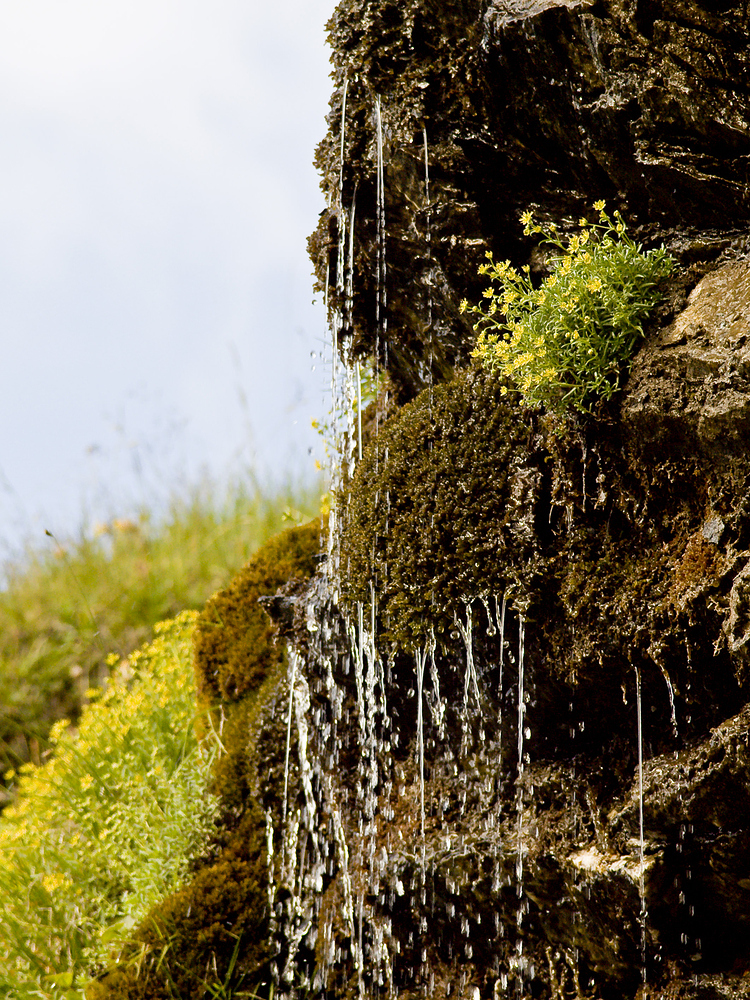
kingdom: Plantae
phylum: Tracheophyta
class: Magnoliopsida
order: Saxifragales
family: Saxifragaceae
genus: Saxifraga
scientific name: Saxifraga aizoides
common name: Yellow mountain saxifrage
